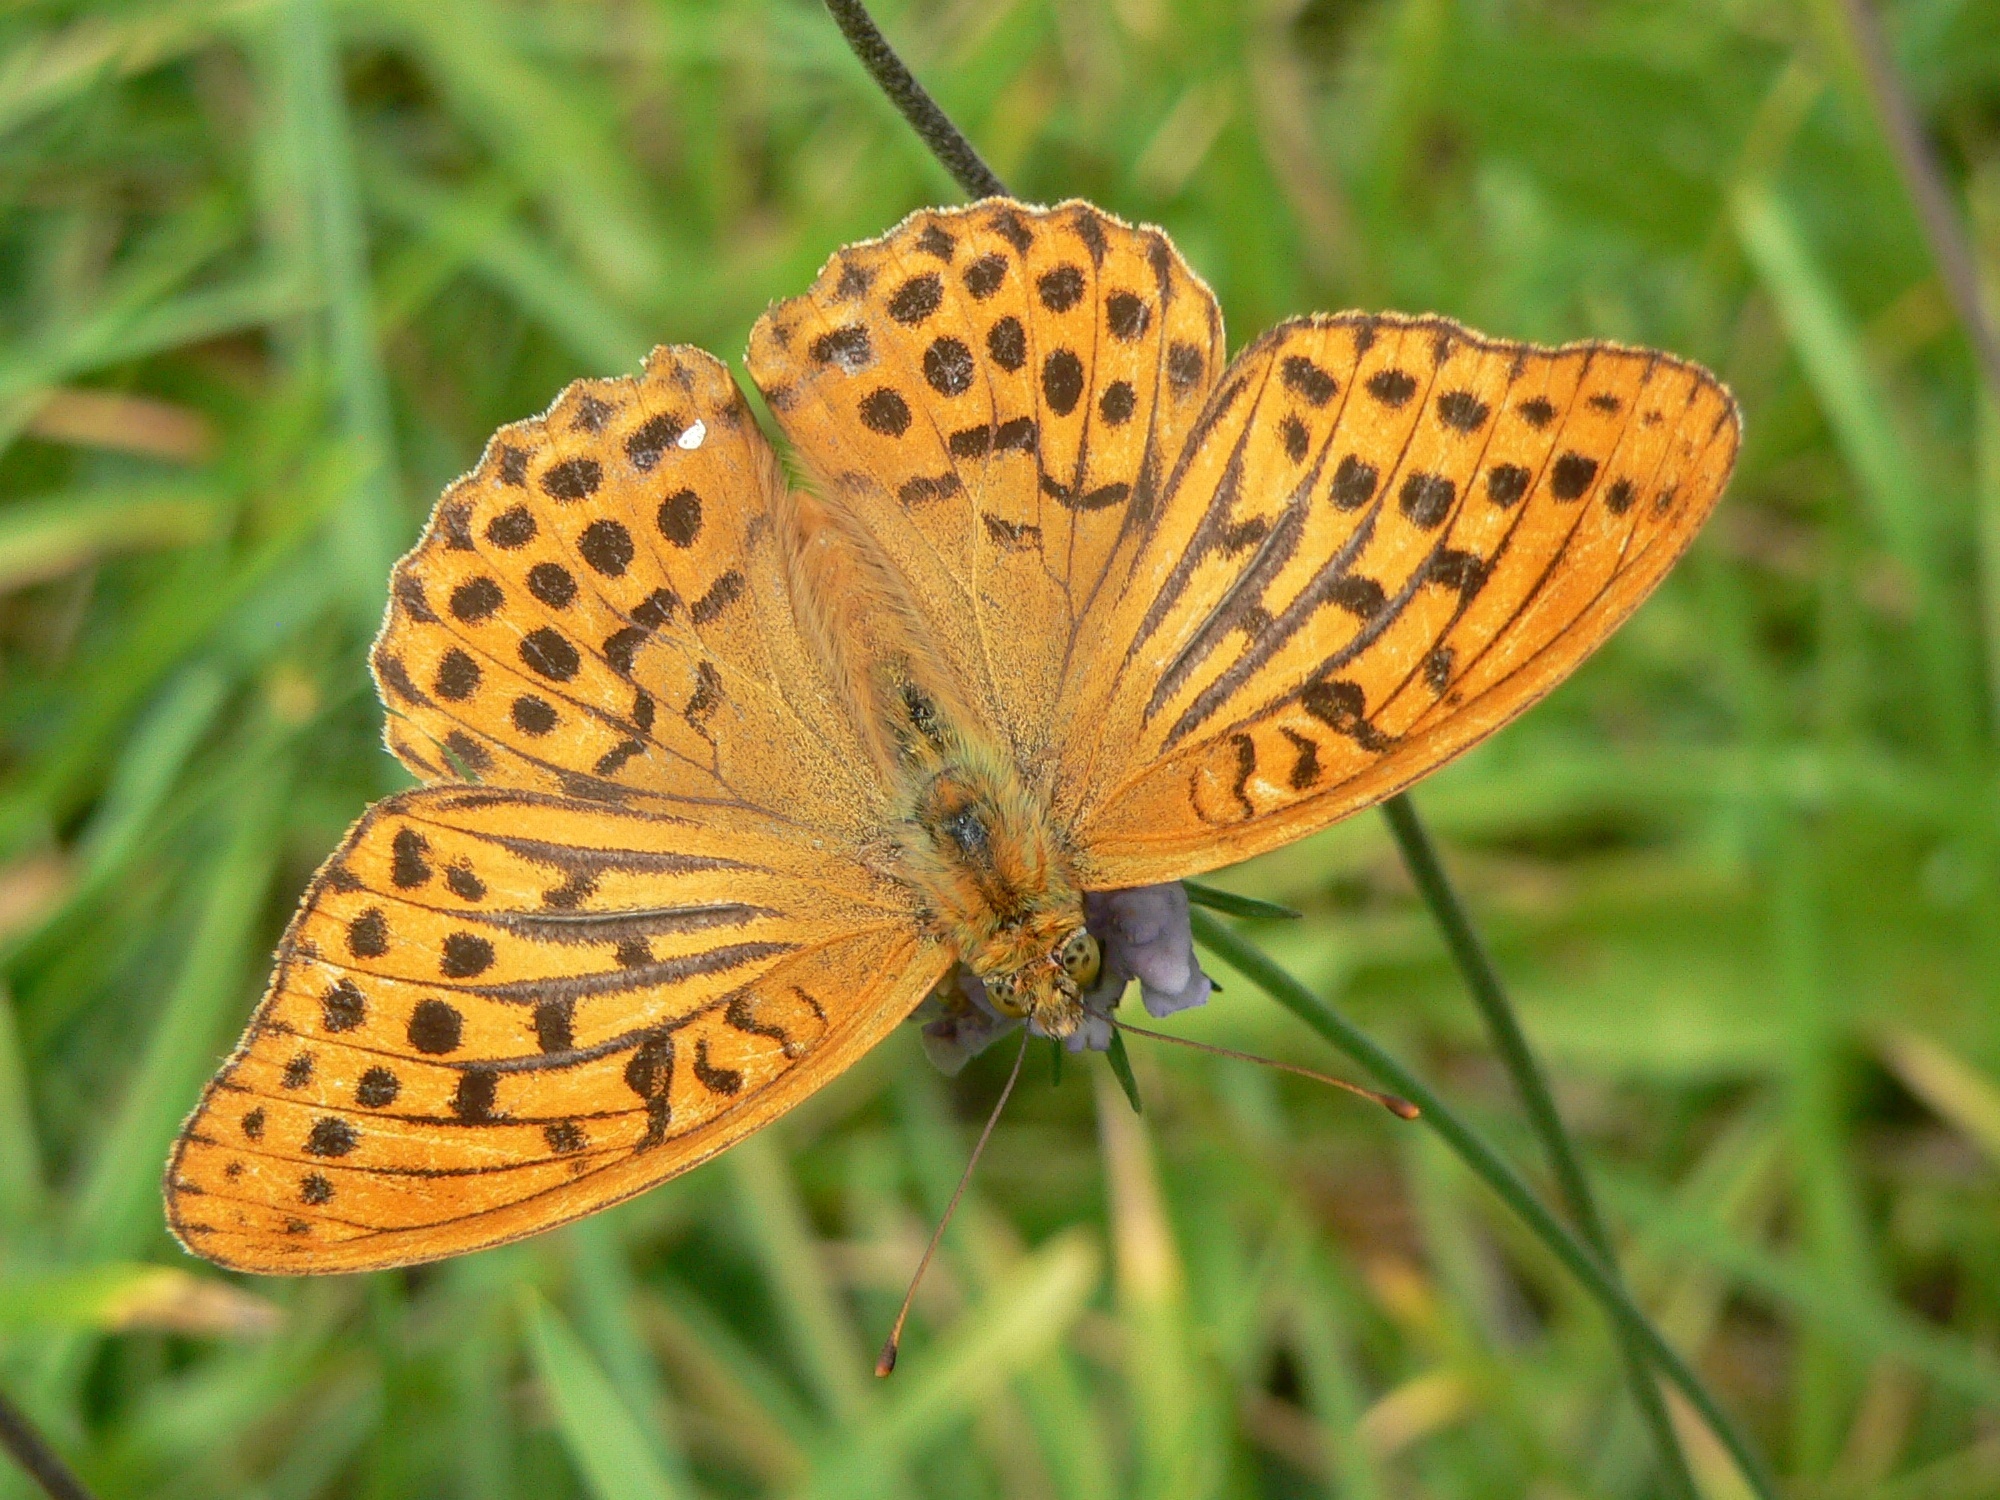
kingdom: Animalia
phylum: Arthropoda
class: Insecta
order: Lepidoptera
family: Nymphalidae
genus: Argynnis
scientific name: Argynnis paphia
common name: Silver-washed fritillary
